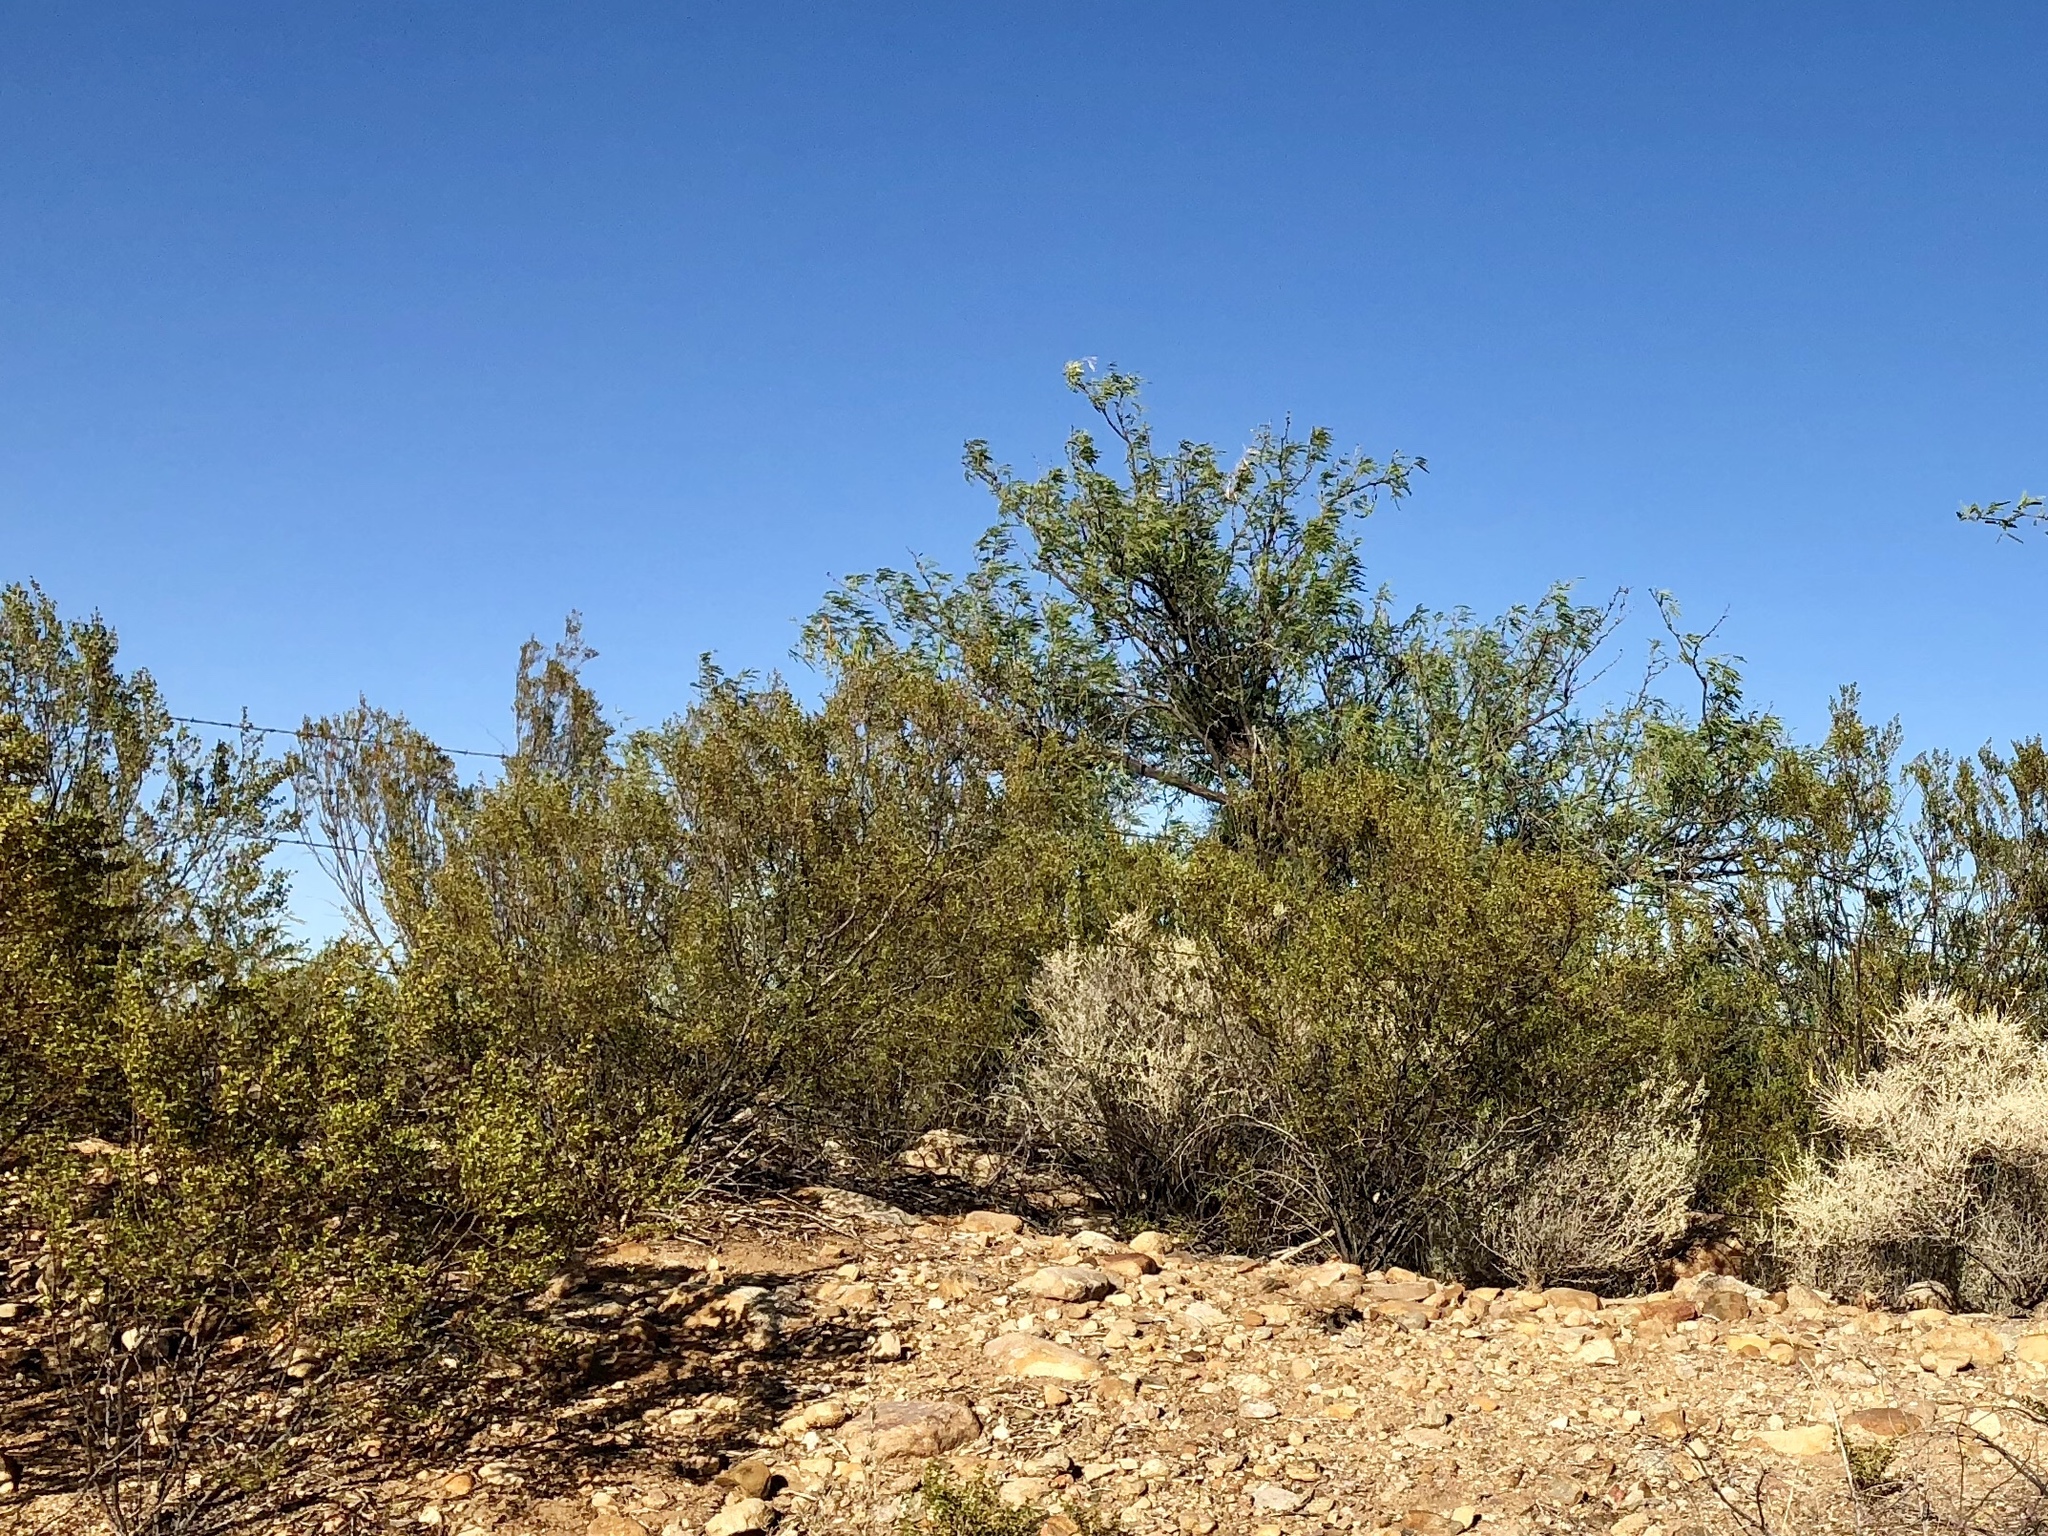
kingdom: Plantae
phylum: Tracheophyta
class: Magnoliopsida
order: Zygophyllales
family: Zygophyllaceae
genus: Larrea
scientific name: Larrea tridentata
